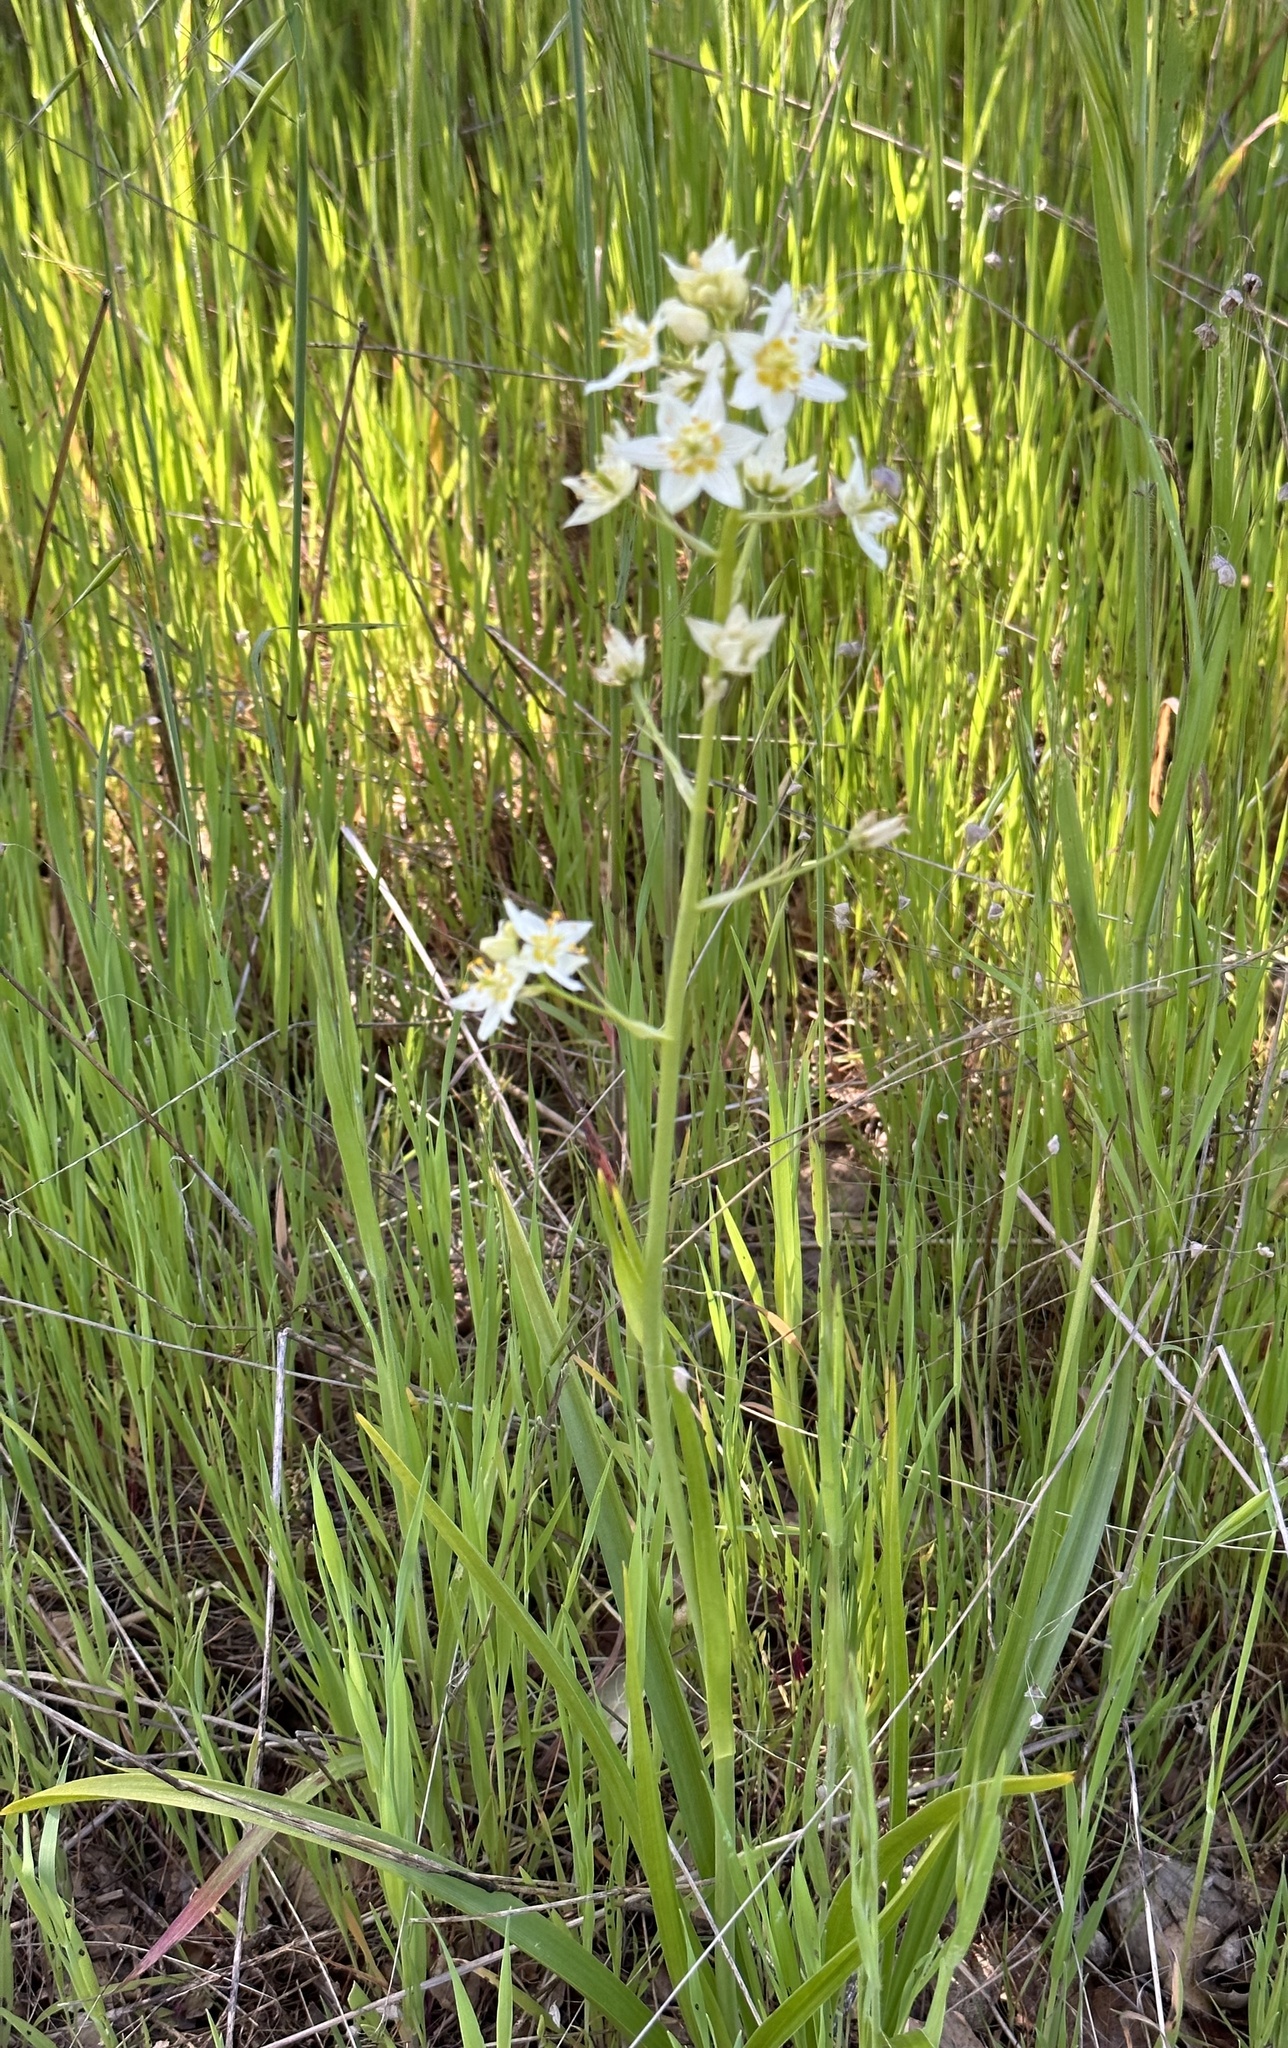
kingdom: Plantae
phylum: Tracheophyta
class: Liliopsida
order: Liliales
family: Melanthiaceae
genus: Toxicoscordion
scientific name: Toxicoscordion fremontii
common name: Fremont's death camas
